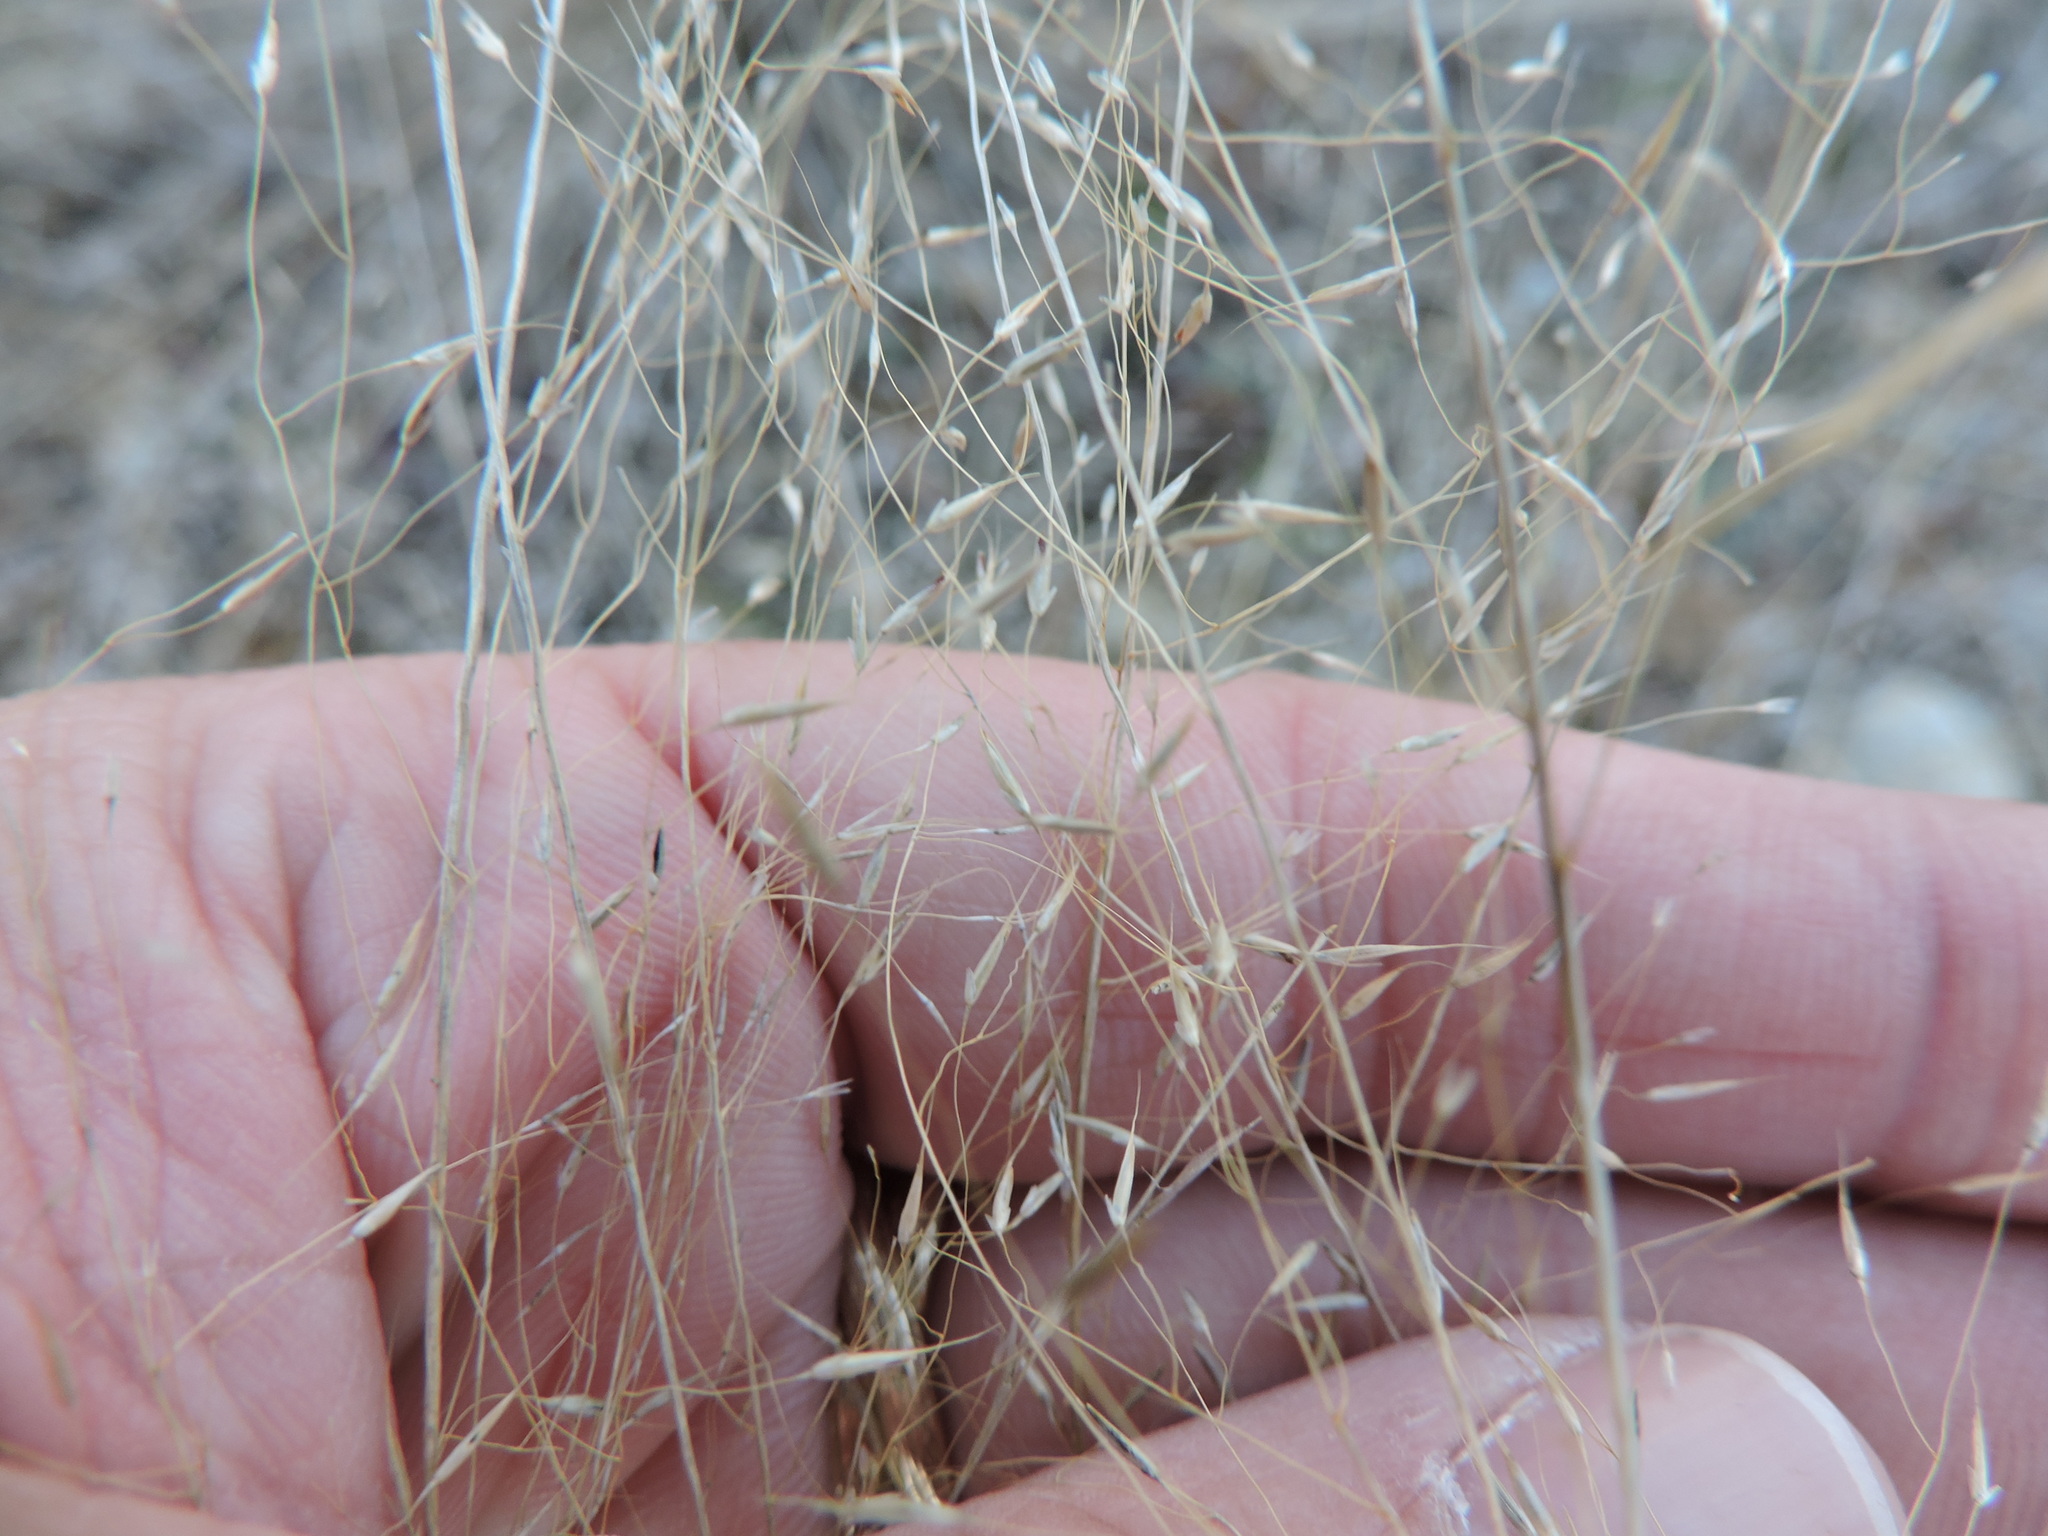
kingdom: Plantae
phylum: Tracheophyta
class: Liliopsida
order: Poales
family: Poaceae
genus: Muhlenbergia
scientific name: Muhlenbergia reverchonii
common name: Seep muhly
